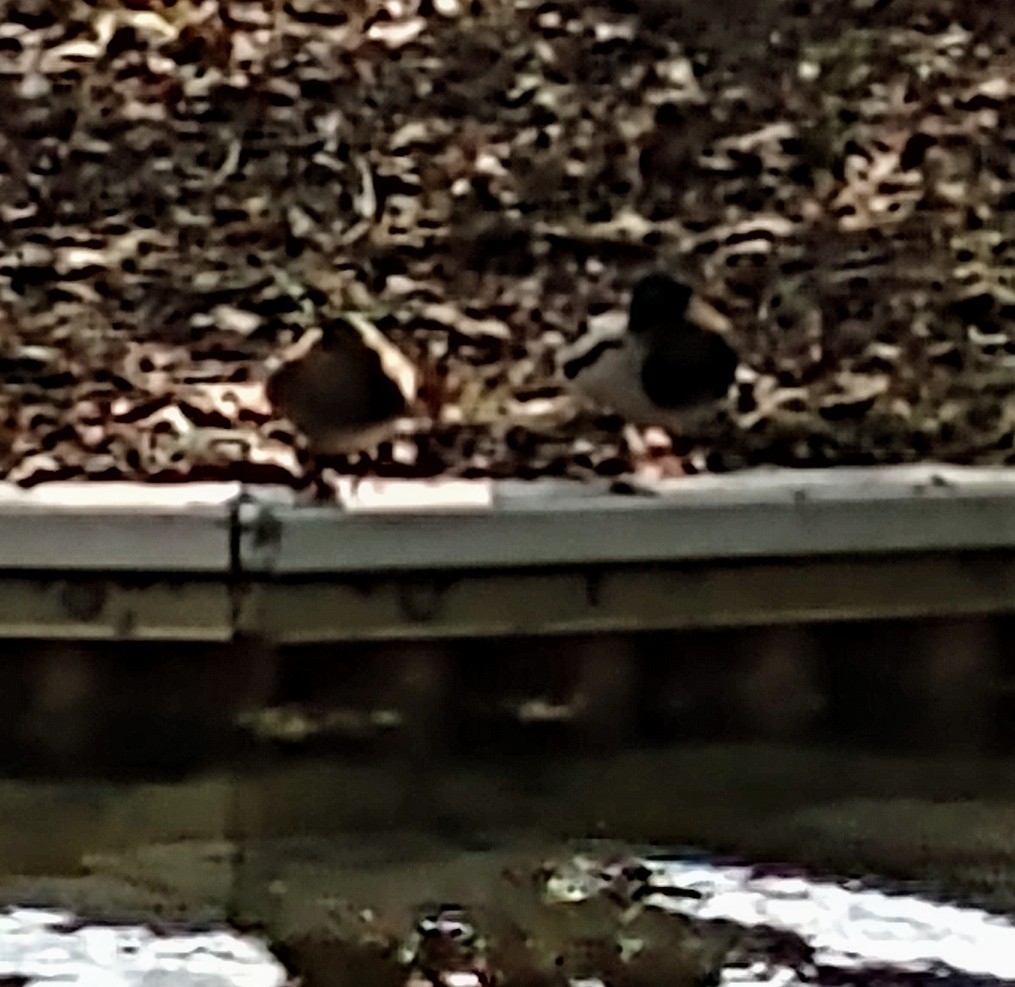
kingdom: Animalia
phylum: Chordata
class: Aves
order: Anseriformes
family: Anatidae
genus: Anas
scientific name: Anas platyrhynchos
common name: Mallard
